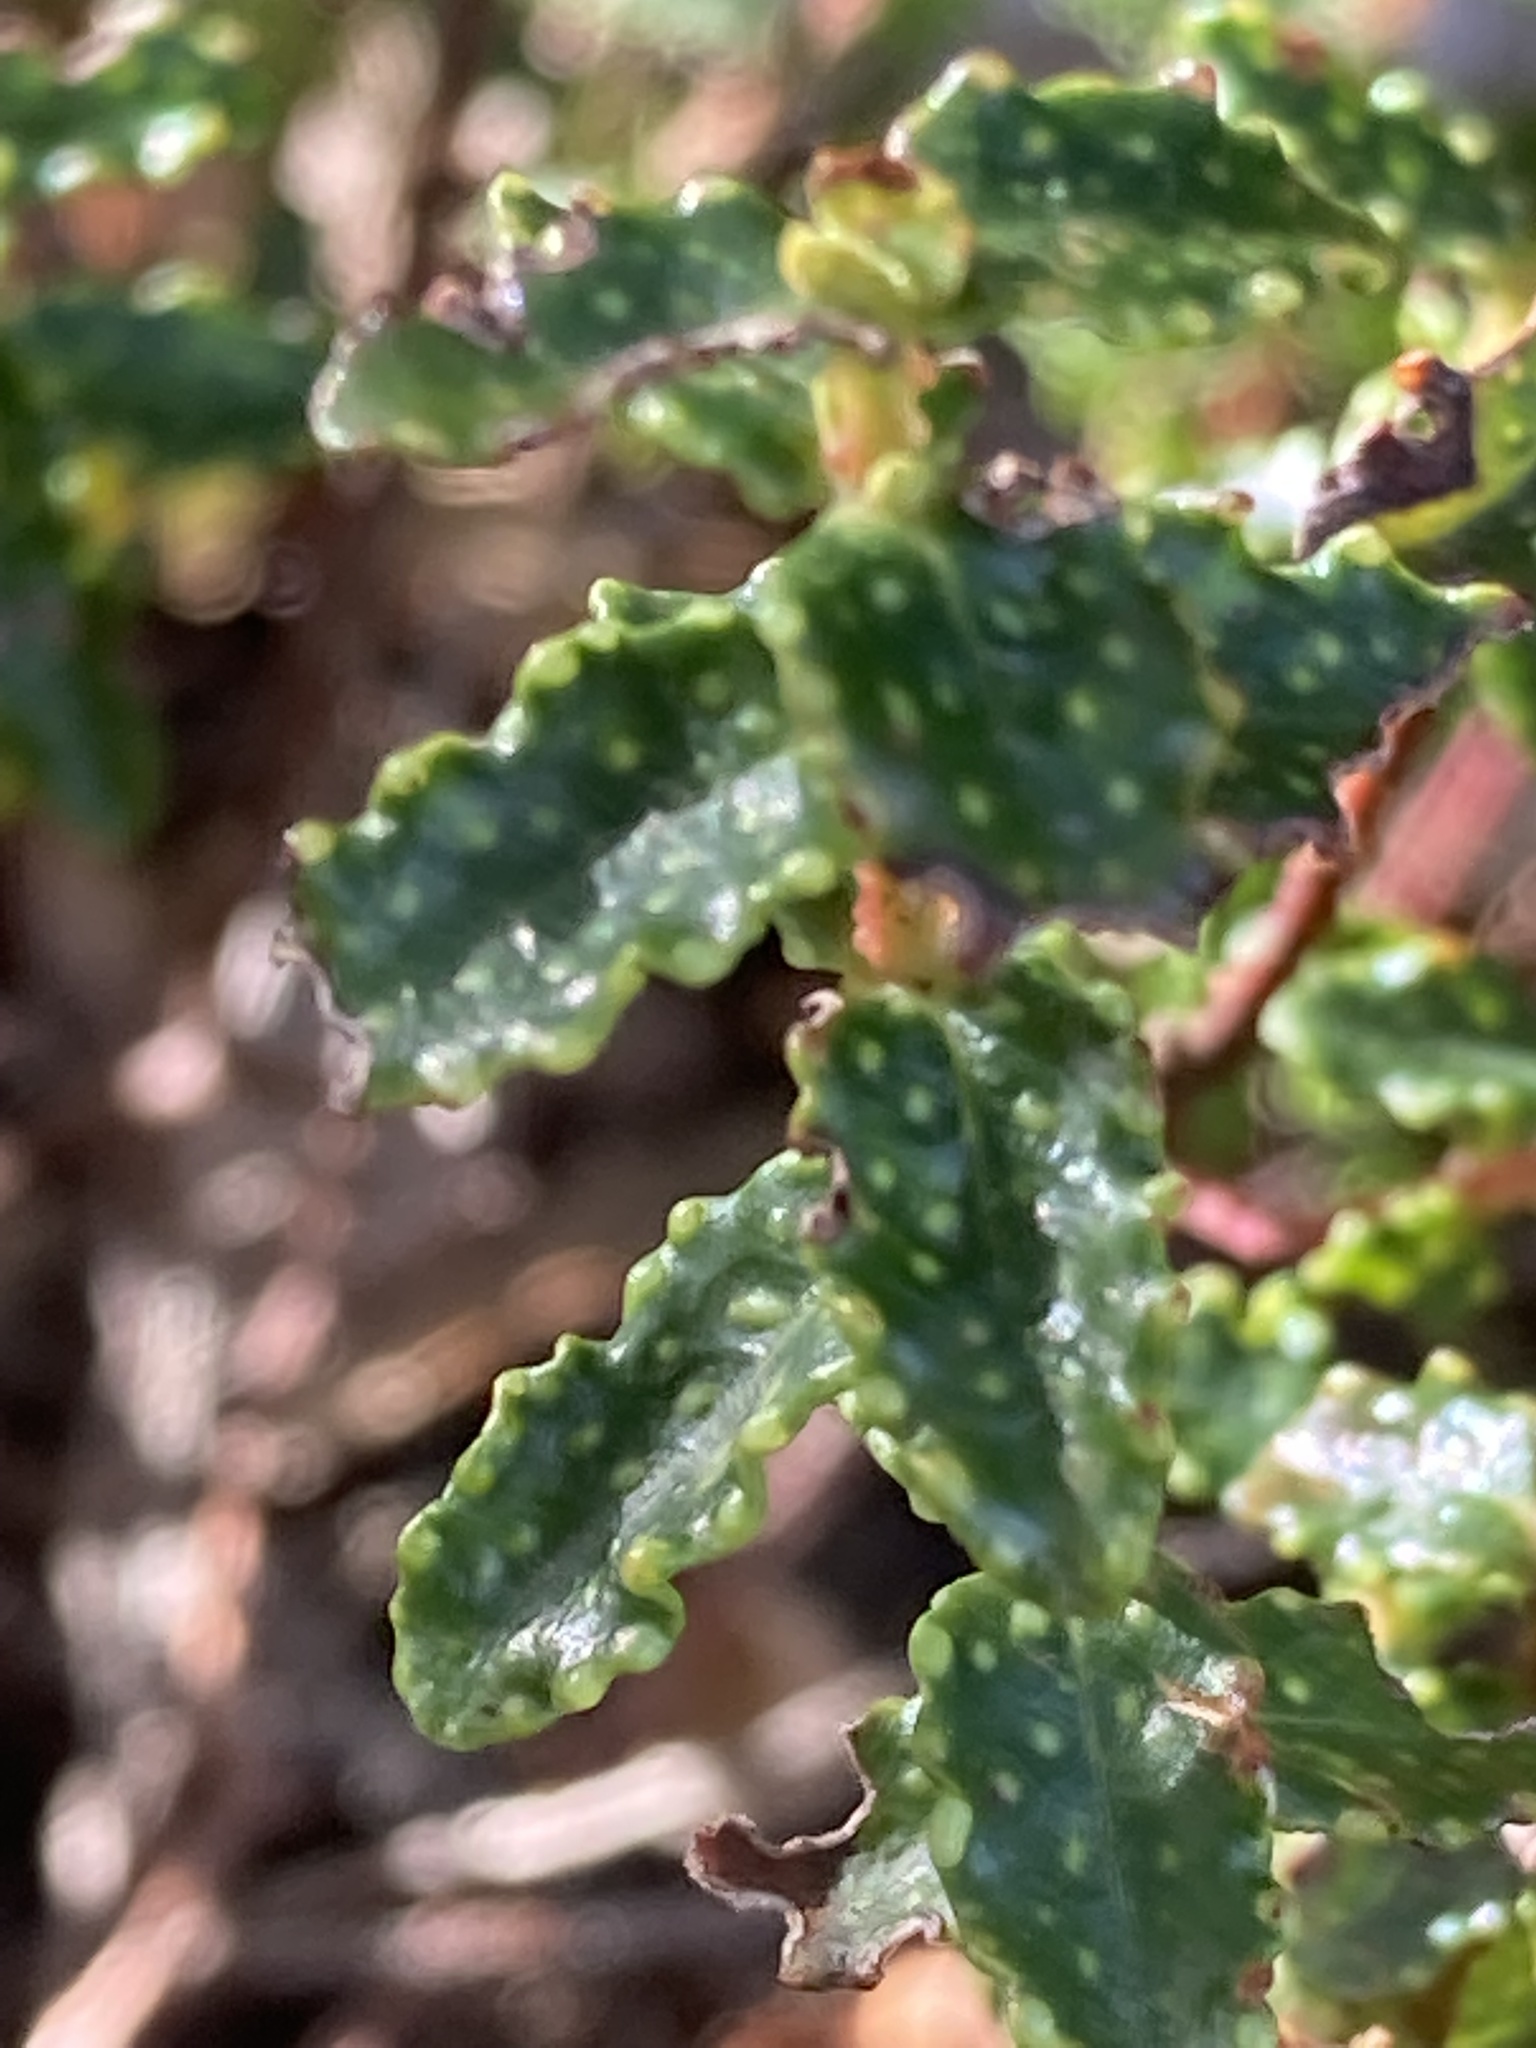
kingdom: Plantae
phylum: Tracheophyta
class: Magnoliopsida
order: Malpighiales
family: Hypericaceae
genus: Hypericum
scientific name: Hypericum balearicum
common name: Majorca st john's wort
